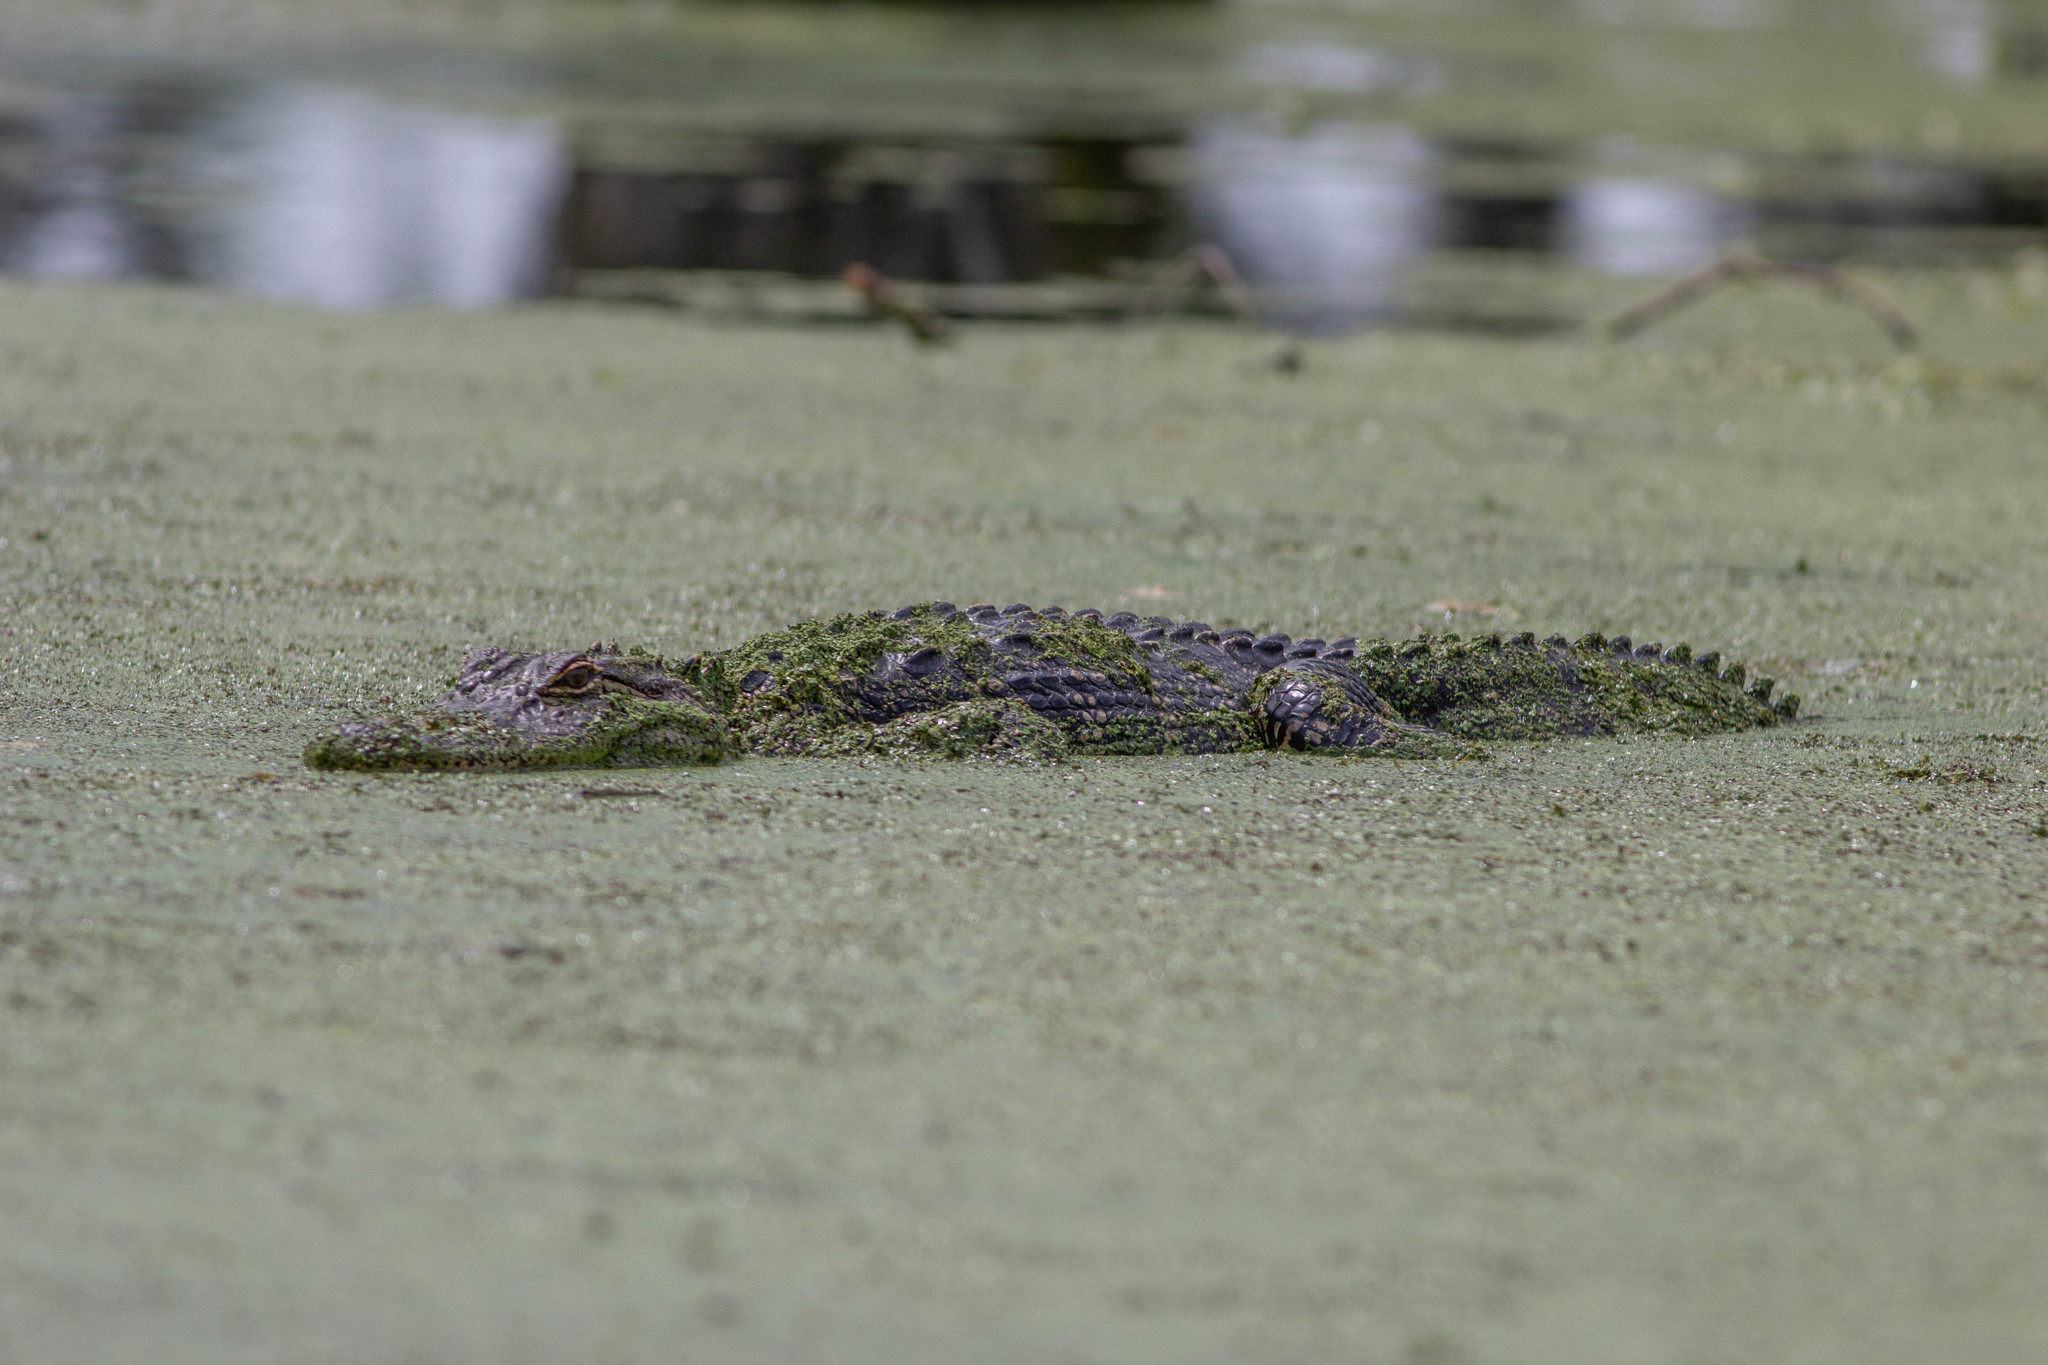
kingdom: Animalia
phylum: Chordata
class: Crocodylia
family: Alligatoridae
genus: Alligator
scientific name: Alligator mississippiensis
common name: American alligator
